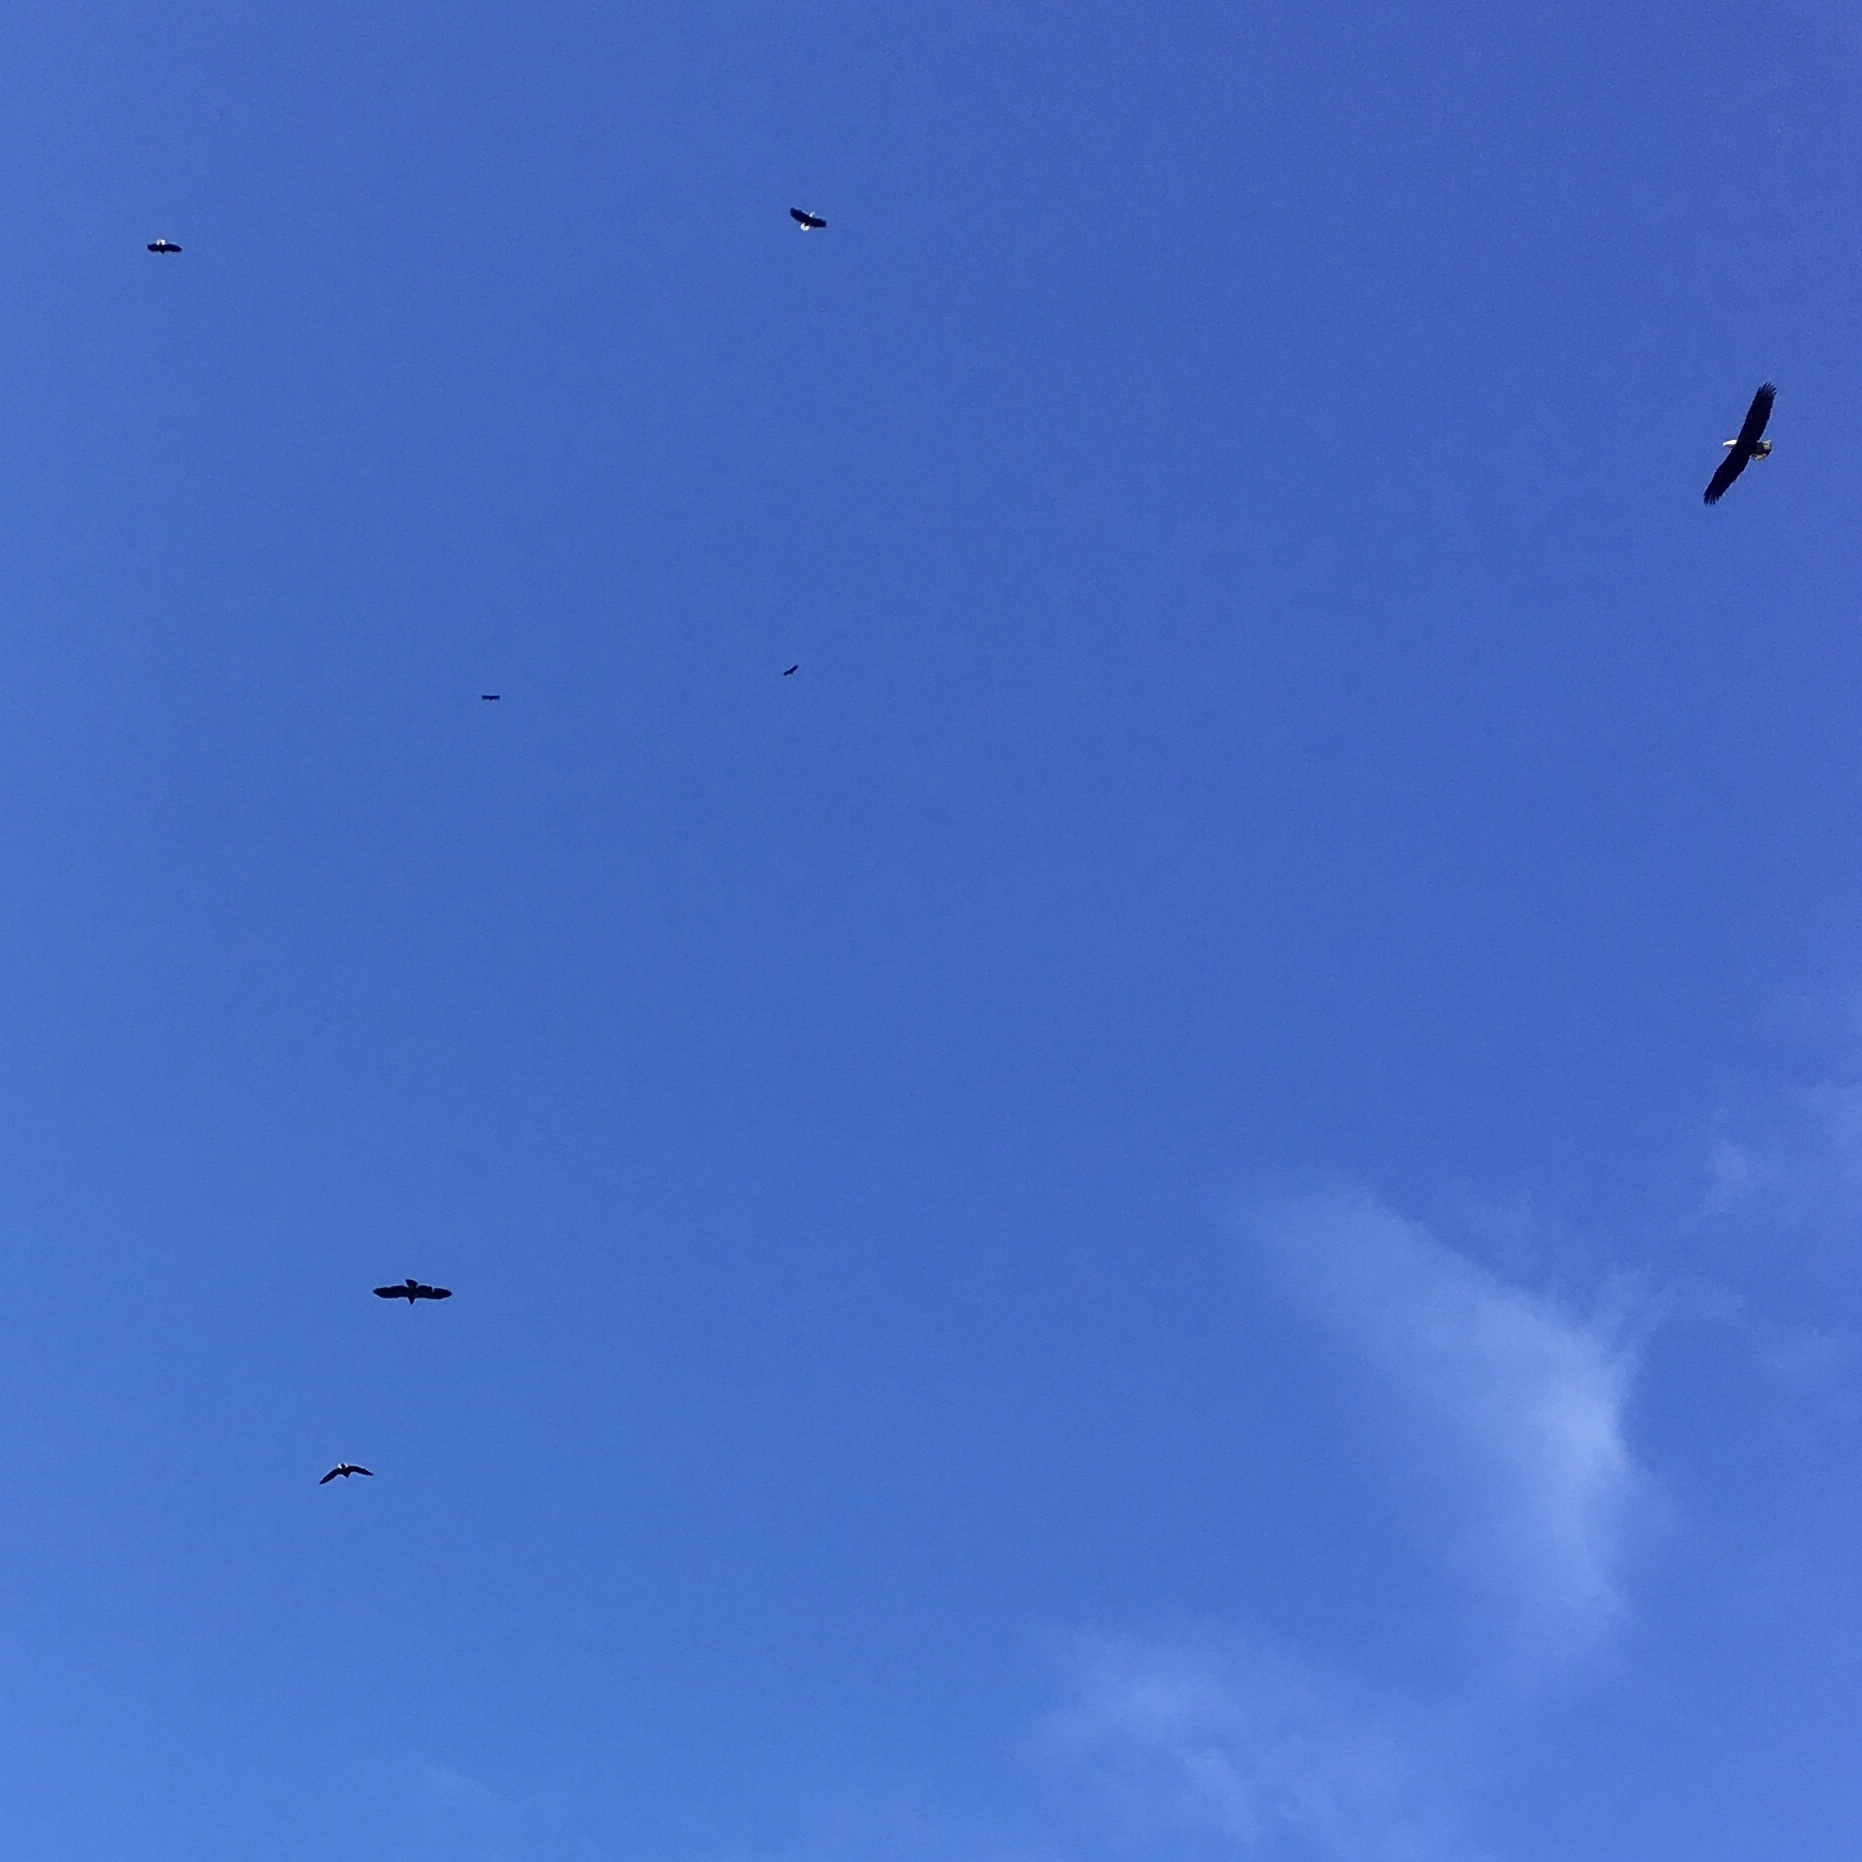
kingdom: Animalia
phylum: Chordata
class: Aves
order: Accipitriformes
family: Accipitridae
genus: Haliaeetus
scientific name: Haliaeetus leucocephalus
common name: Bald eagle
